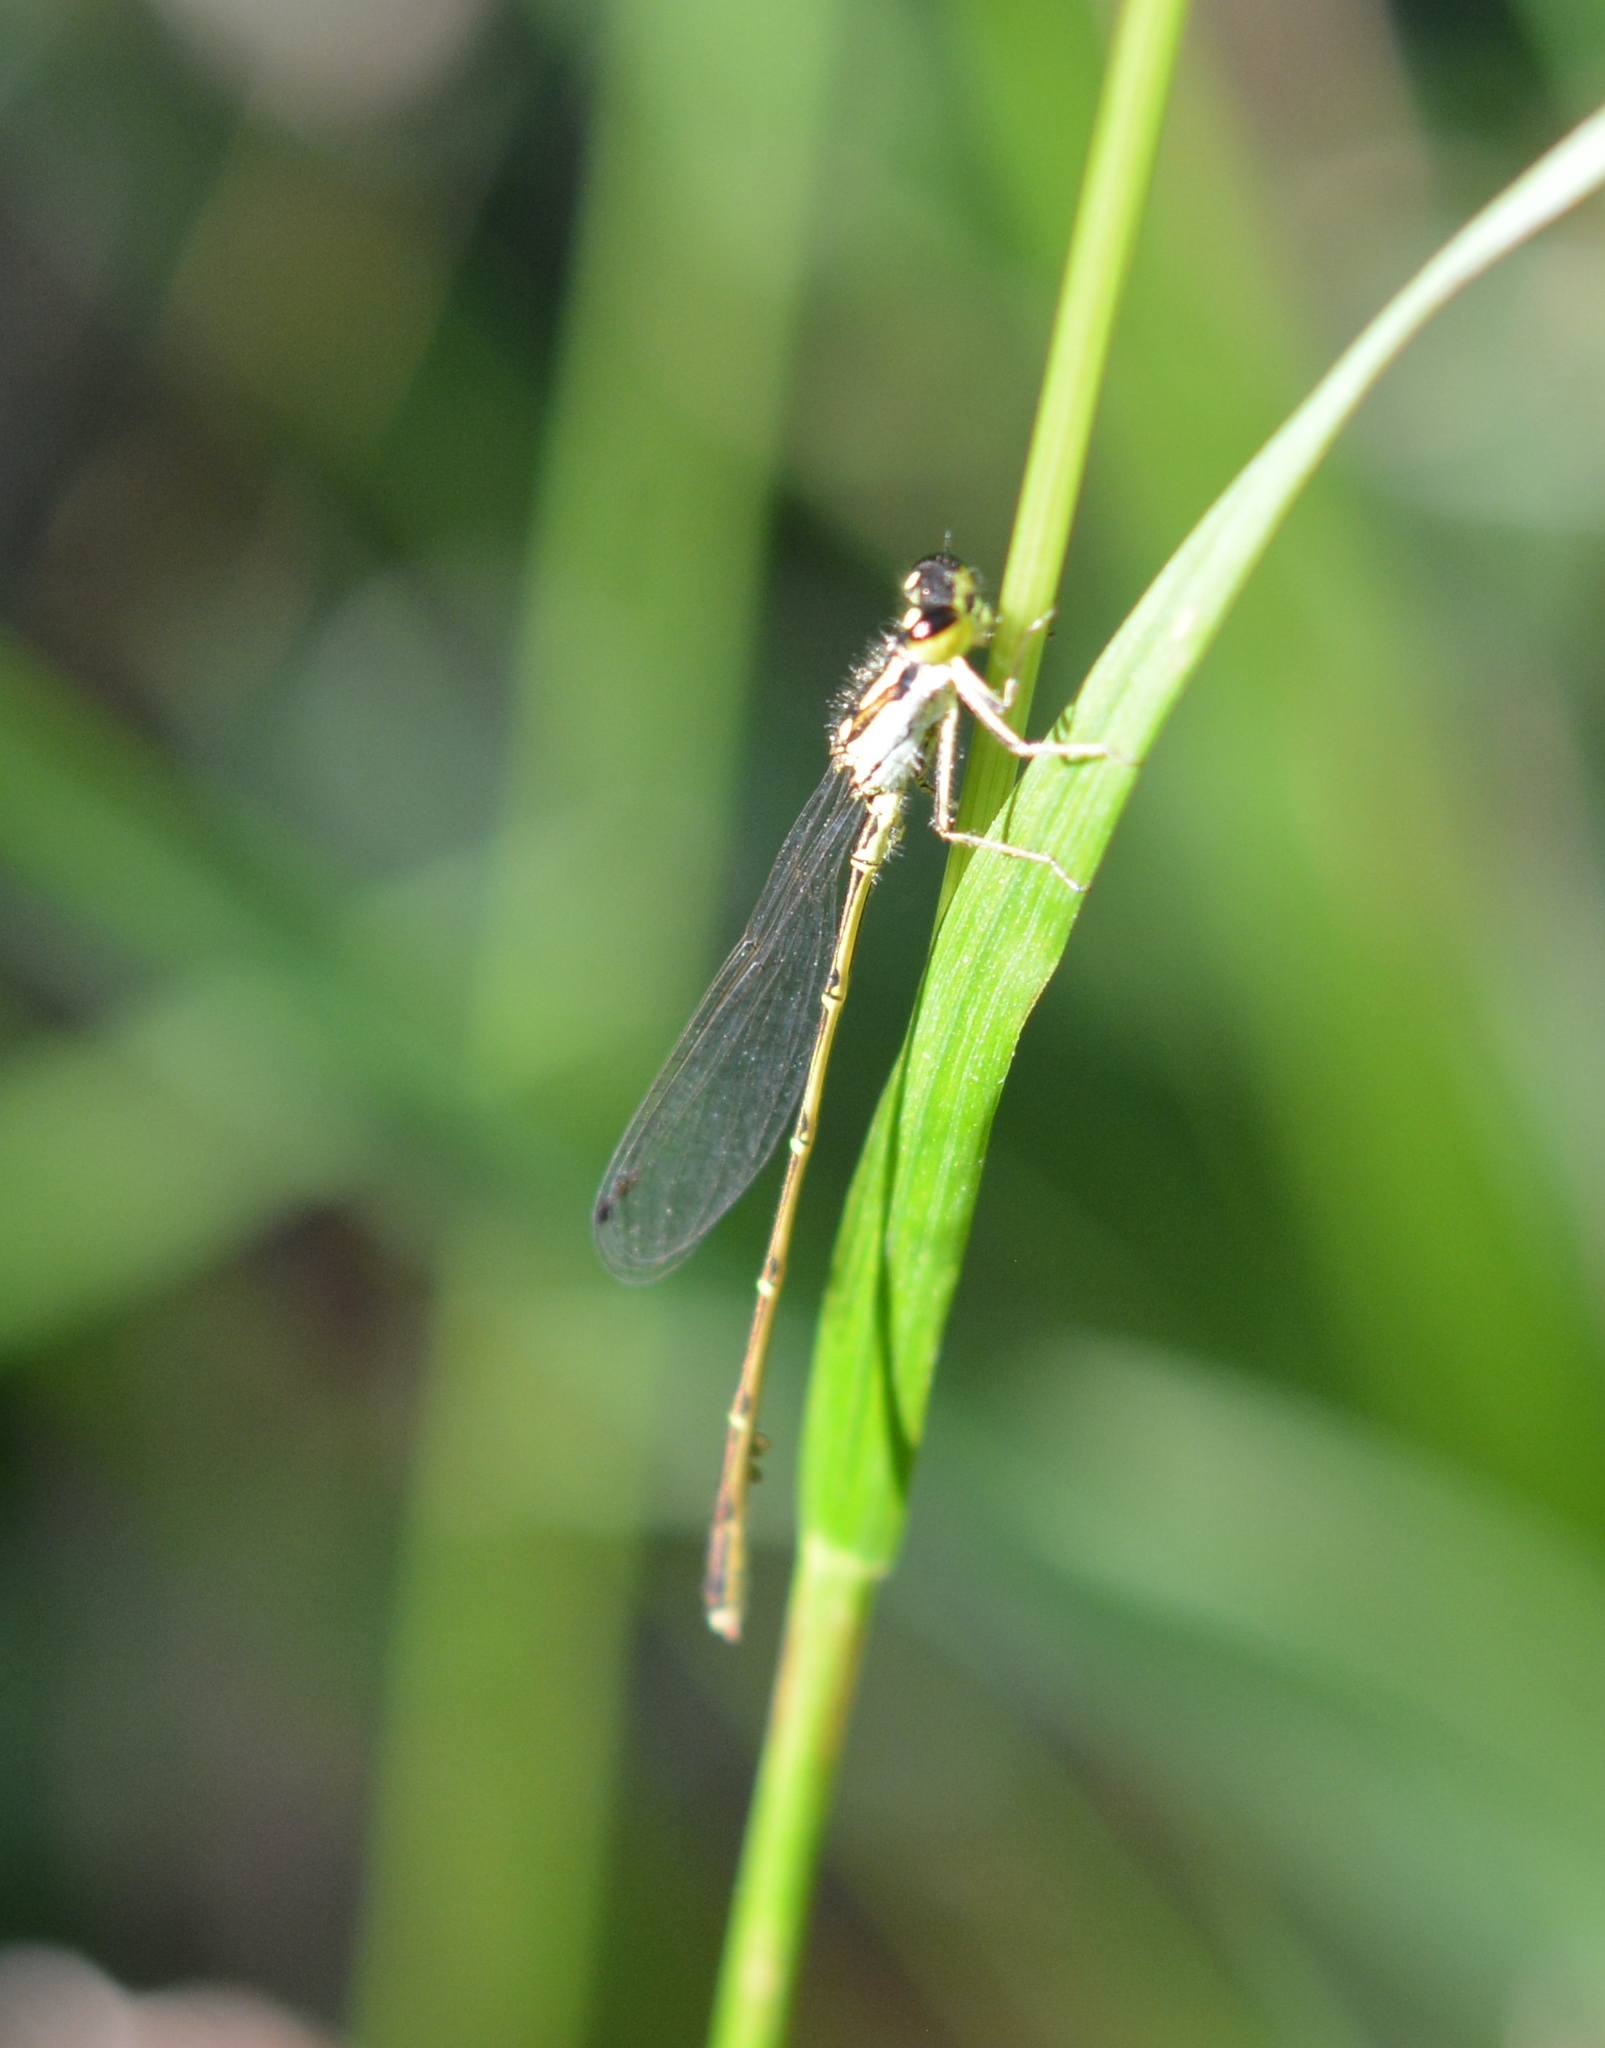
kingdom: Animalia
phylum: Arthropoda
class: Insecta
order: Odonata
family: Coenagrionidae
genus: Ischnura
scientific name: Ischnura posita
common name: Fragile forktail
